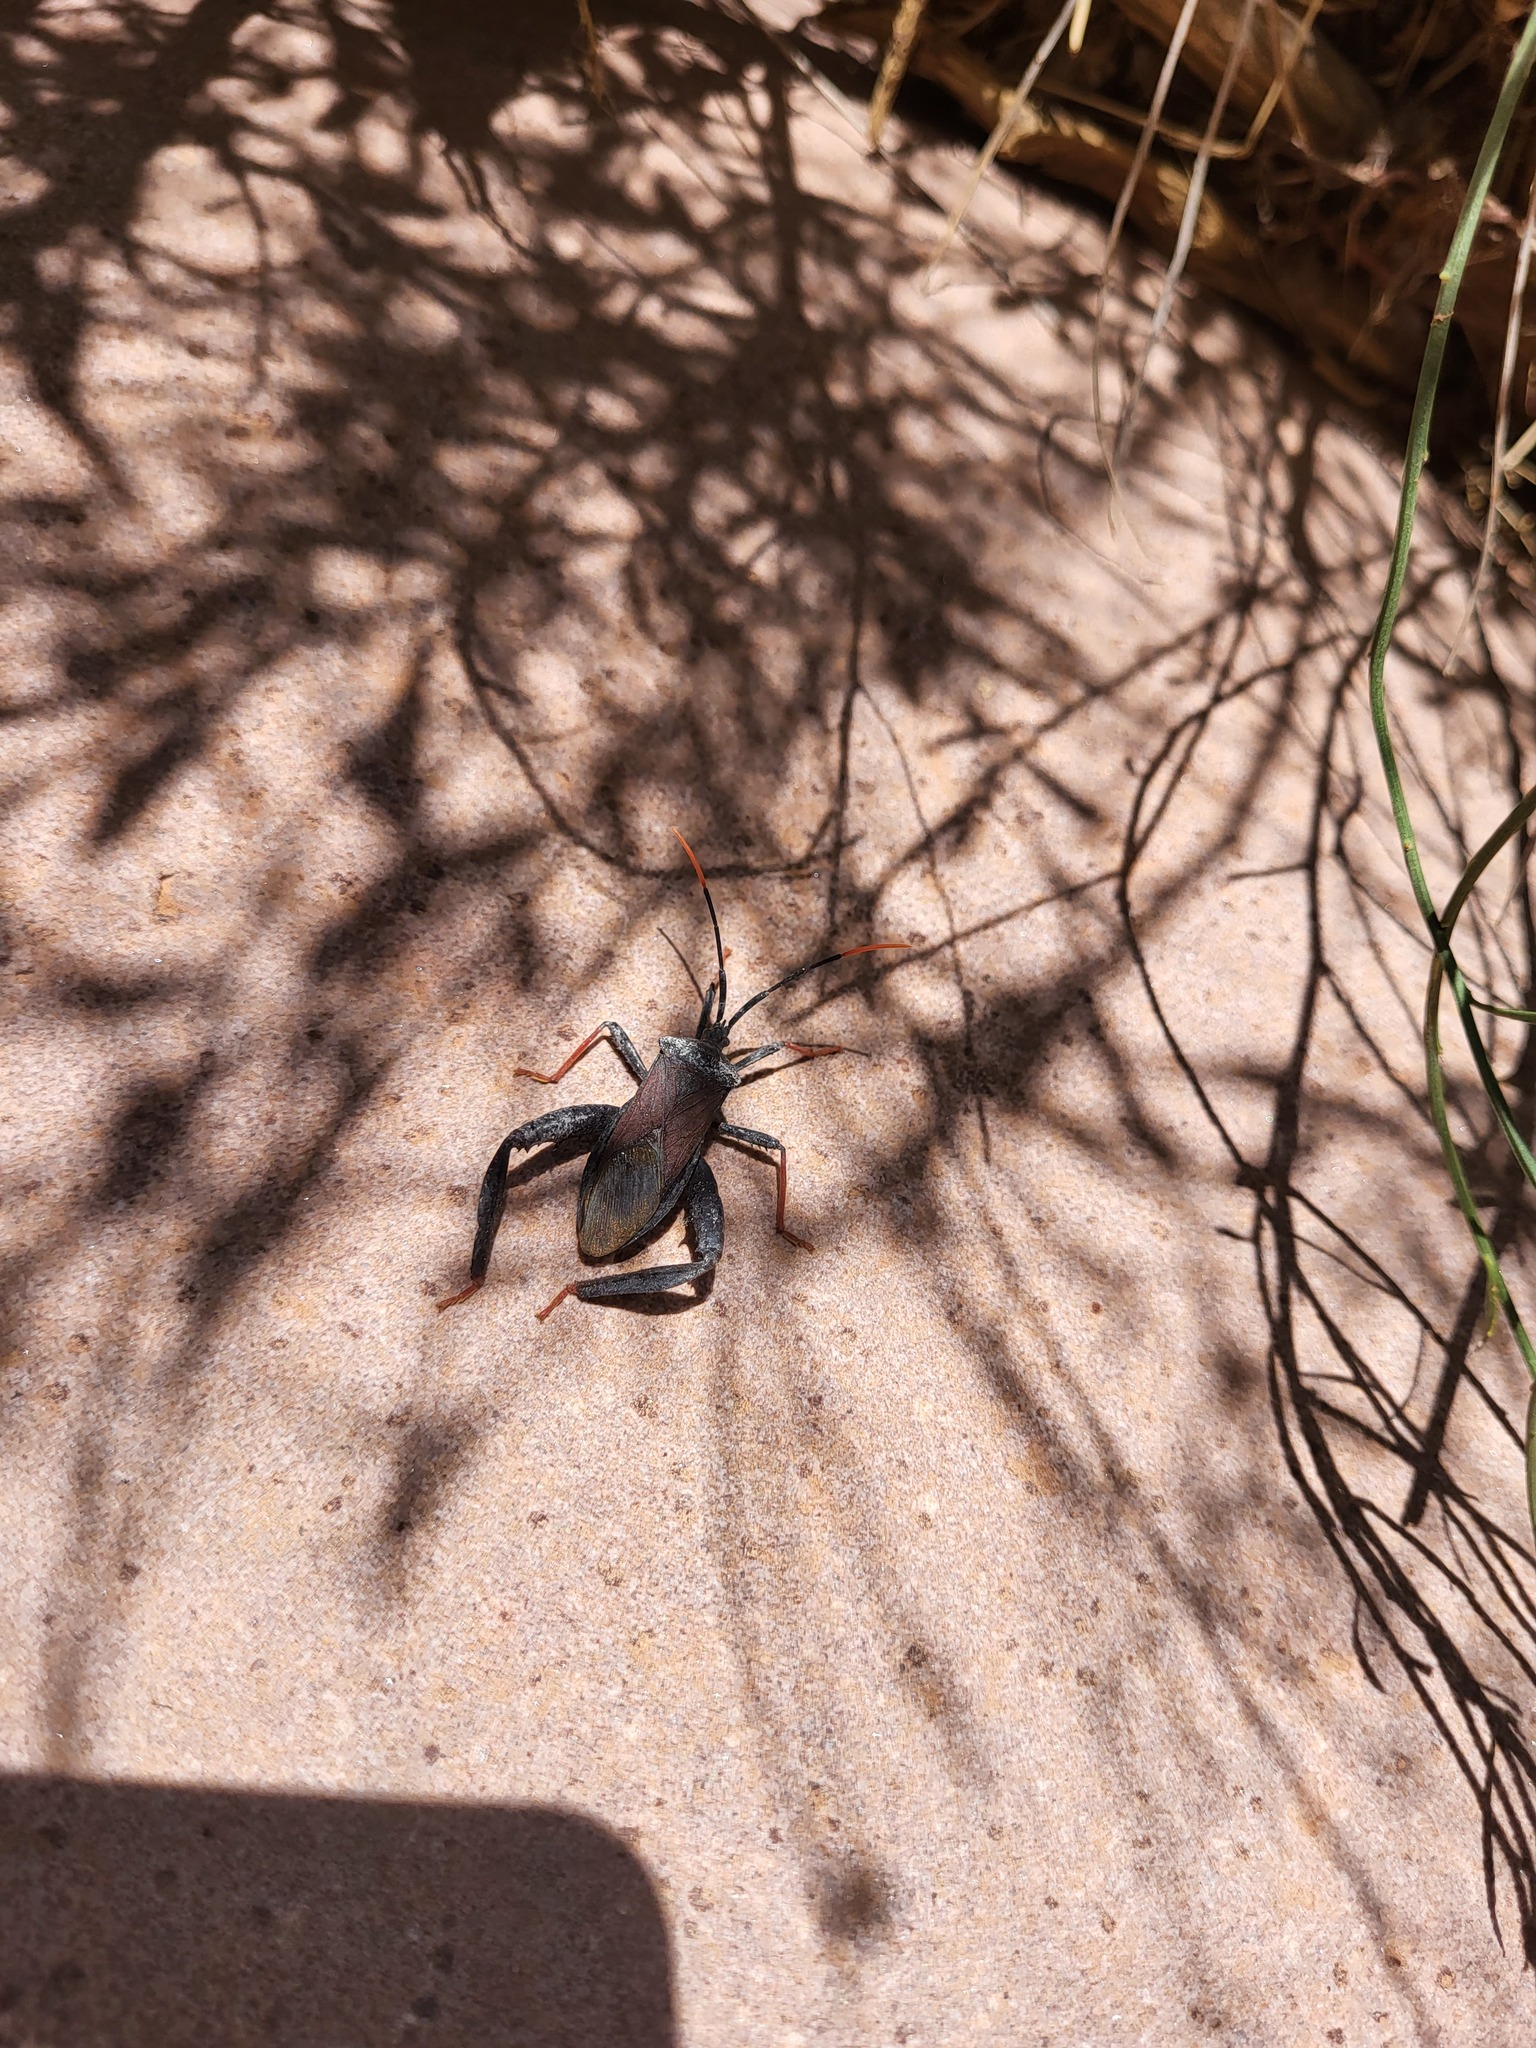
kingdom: Animalia
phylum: Arthropoda
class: Insecta
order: Hemiptera
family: Coreidae
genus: Acanthocephala
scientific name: Acanthocephala thomasi
